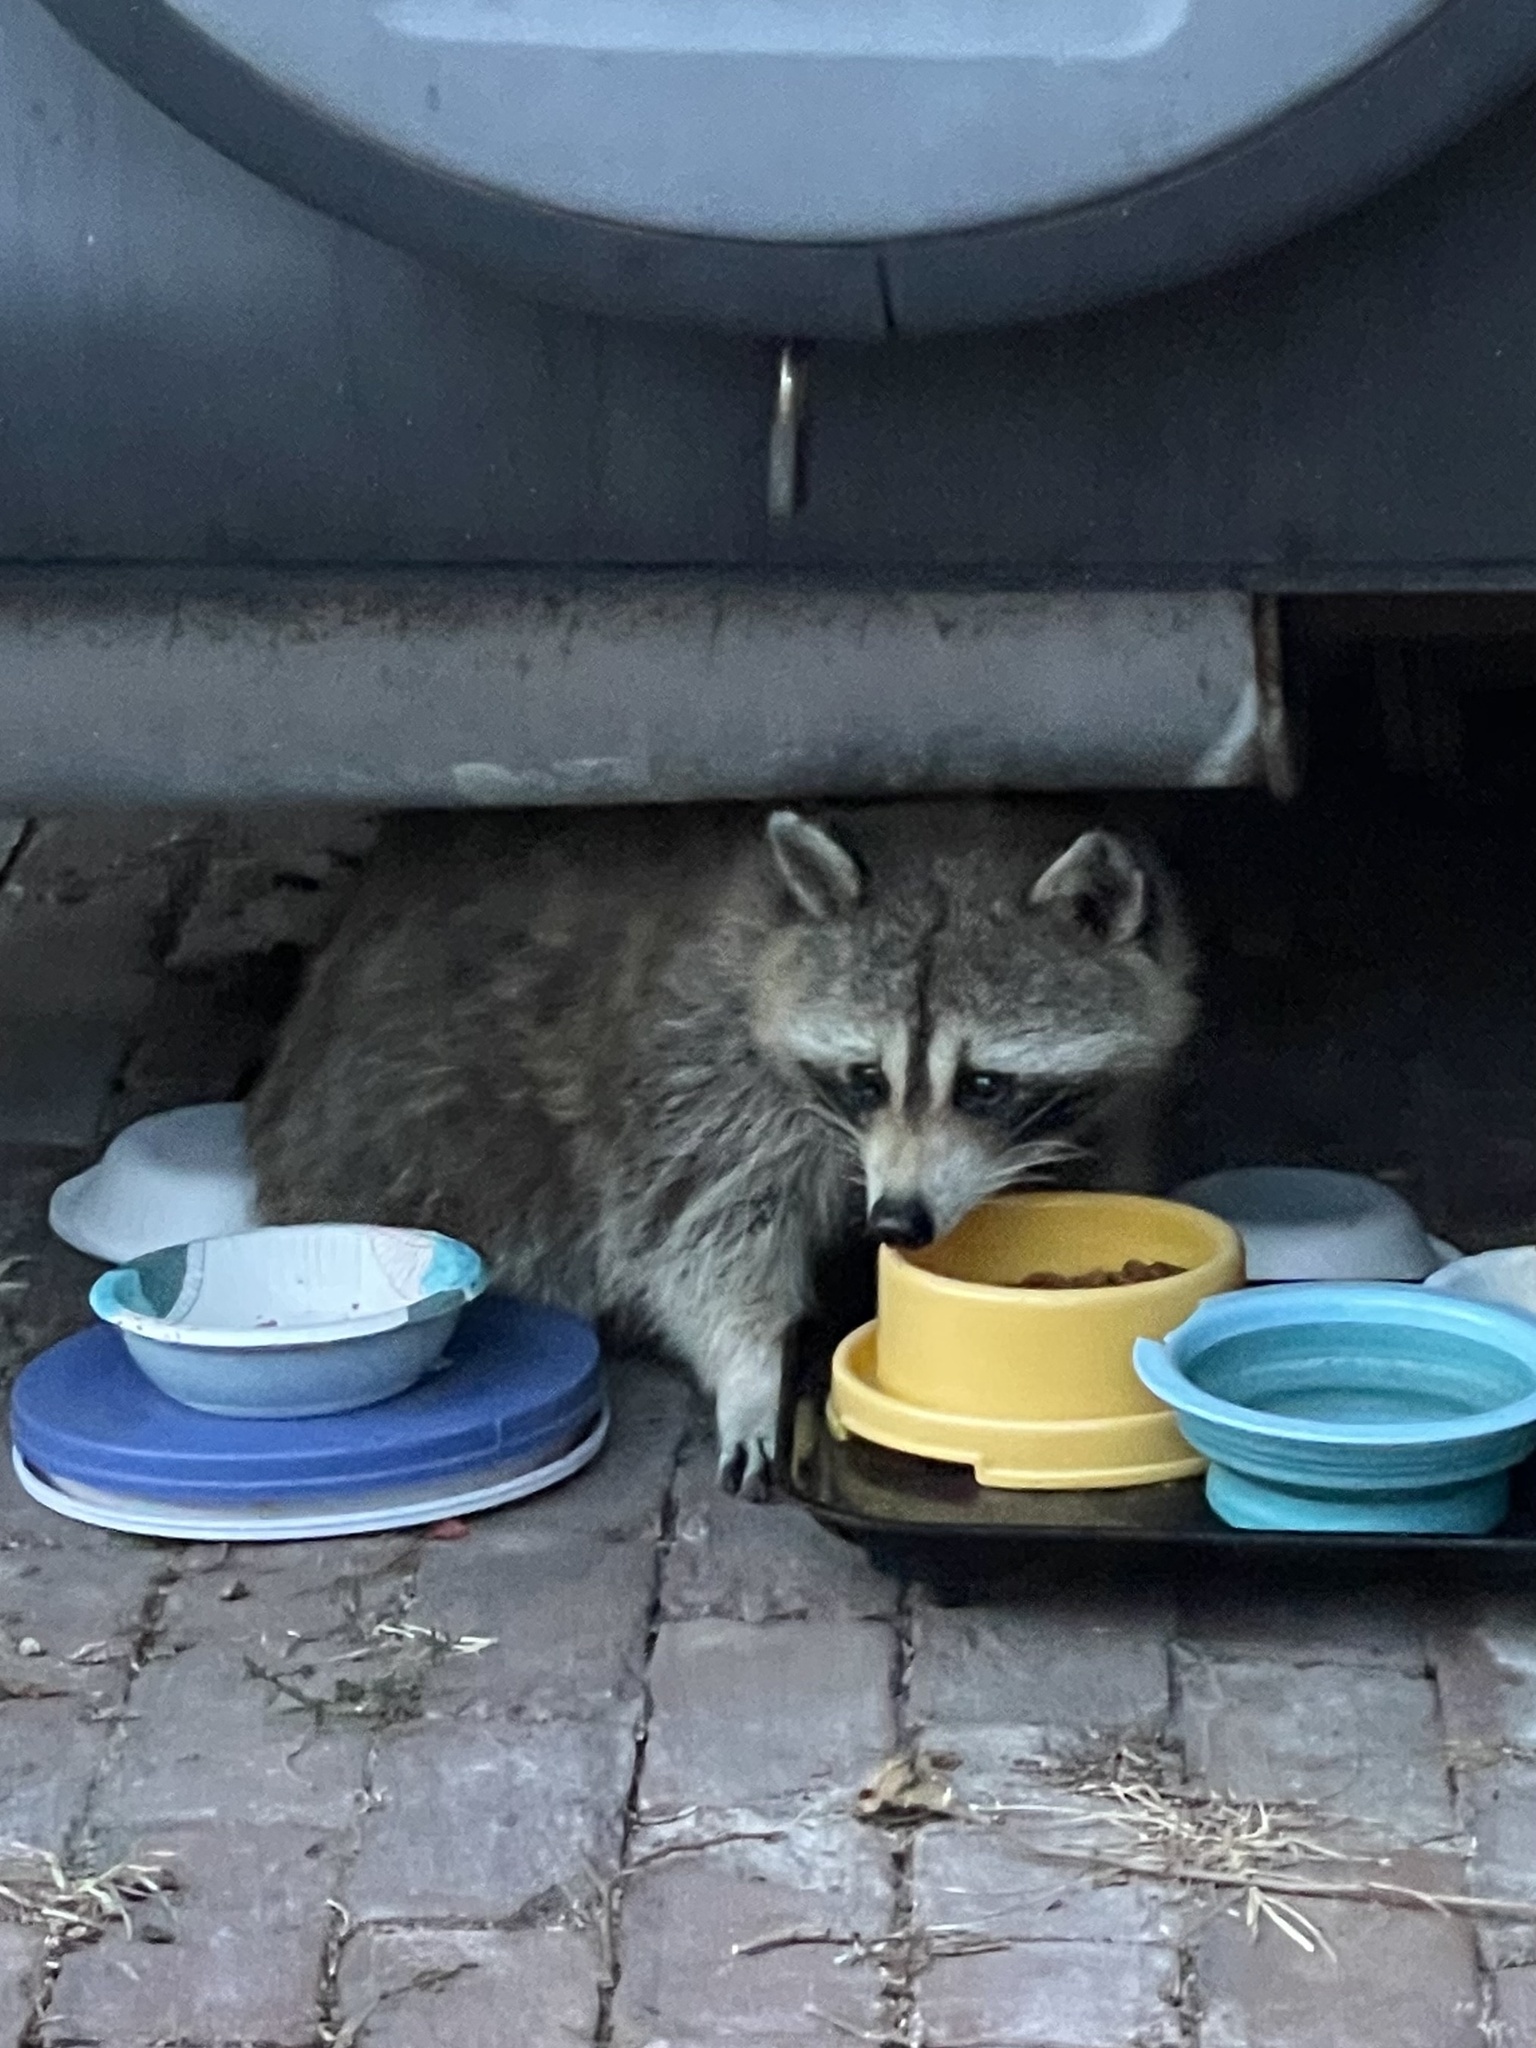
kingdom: Animalia
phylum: Chordata
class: Mammalia
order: Carnivora
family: Procyonidae
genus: Procyon
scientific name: Procyon lotor
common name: Raccoon
